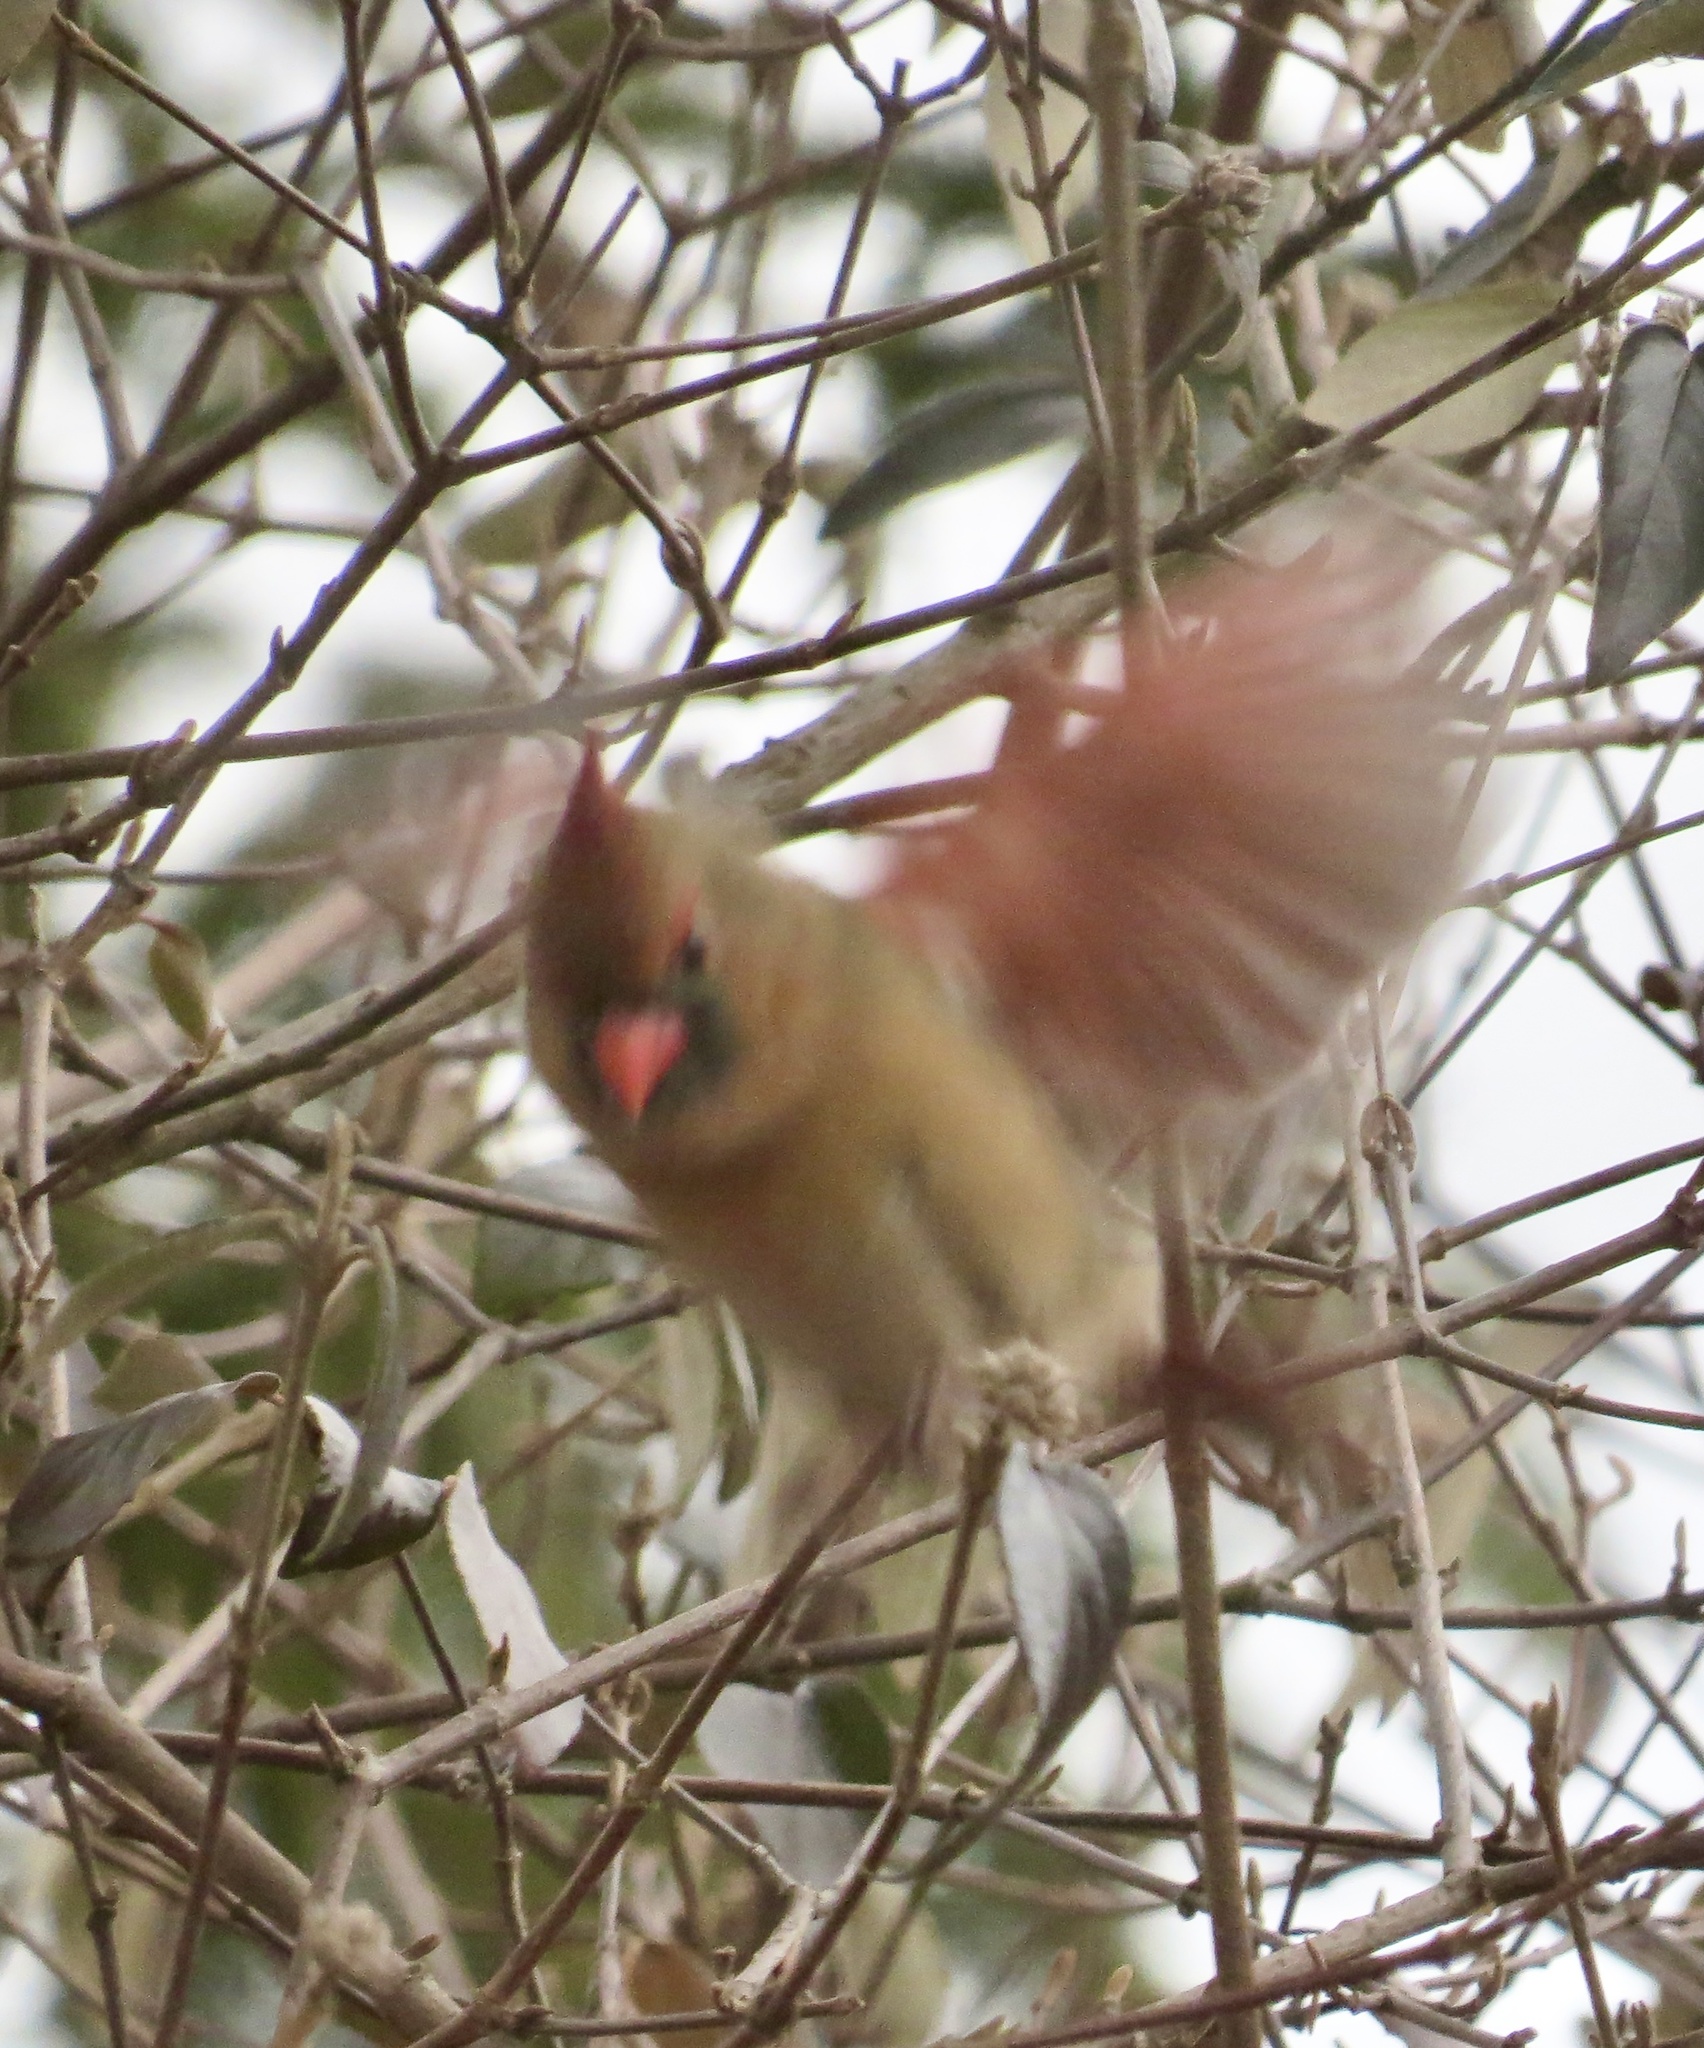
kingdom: Animalia
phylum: Chordata
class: Aves
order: Passeriformes
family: Cardinalidae
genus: Cardinalis
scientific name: Cardinalis cardinalis
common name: Northern cardinal
